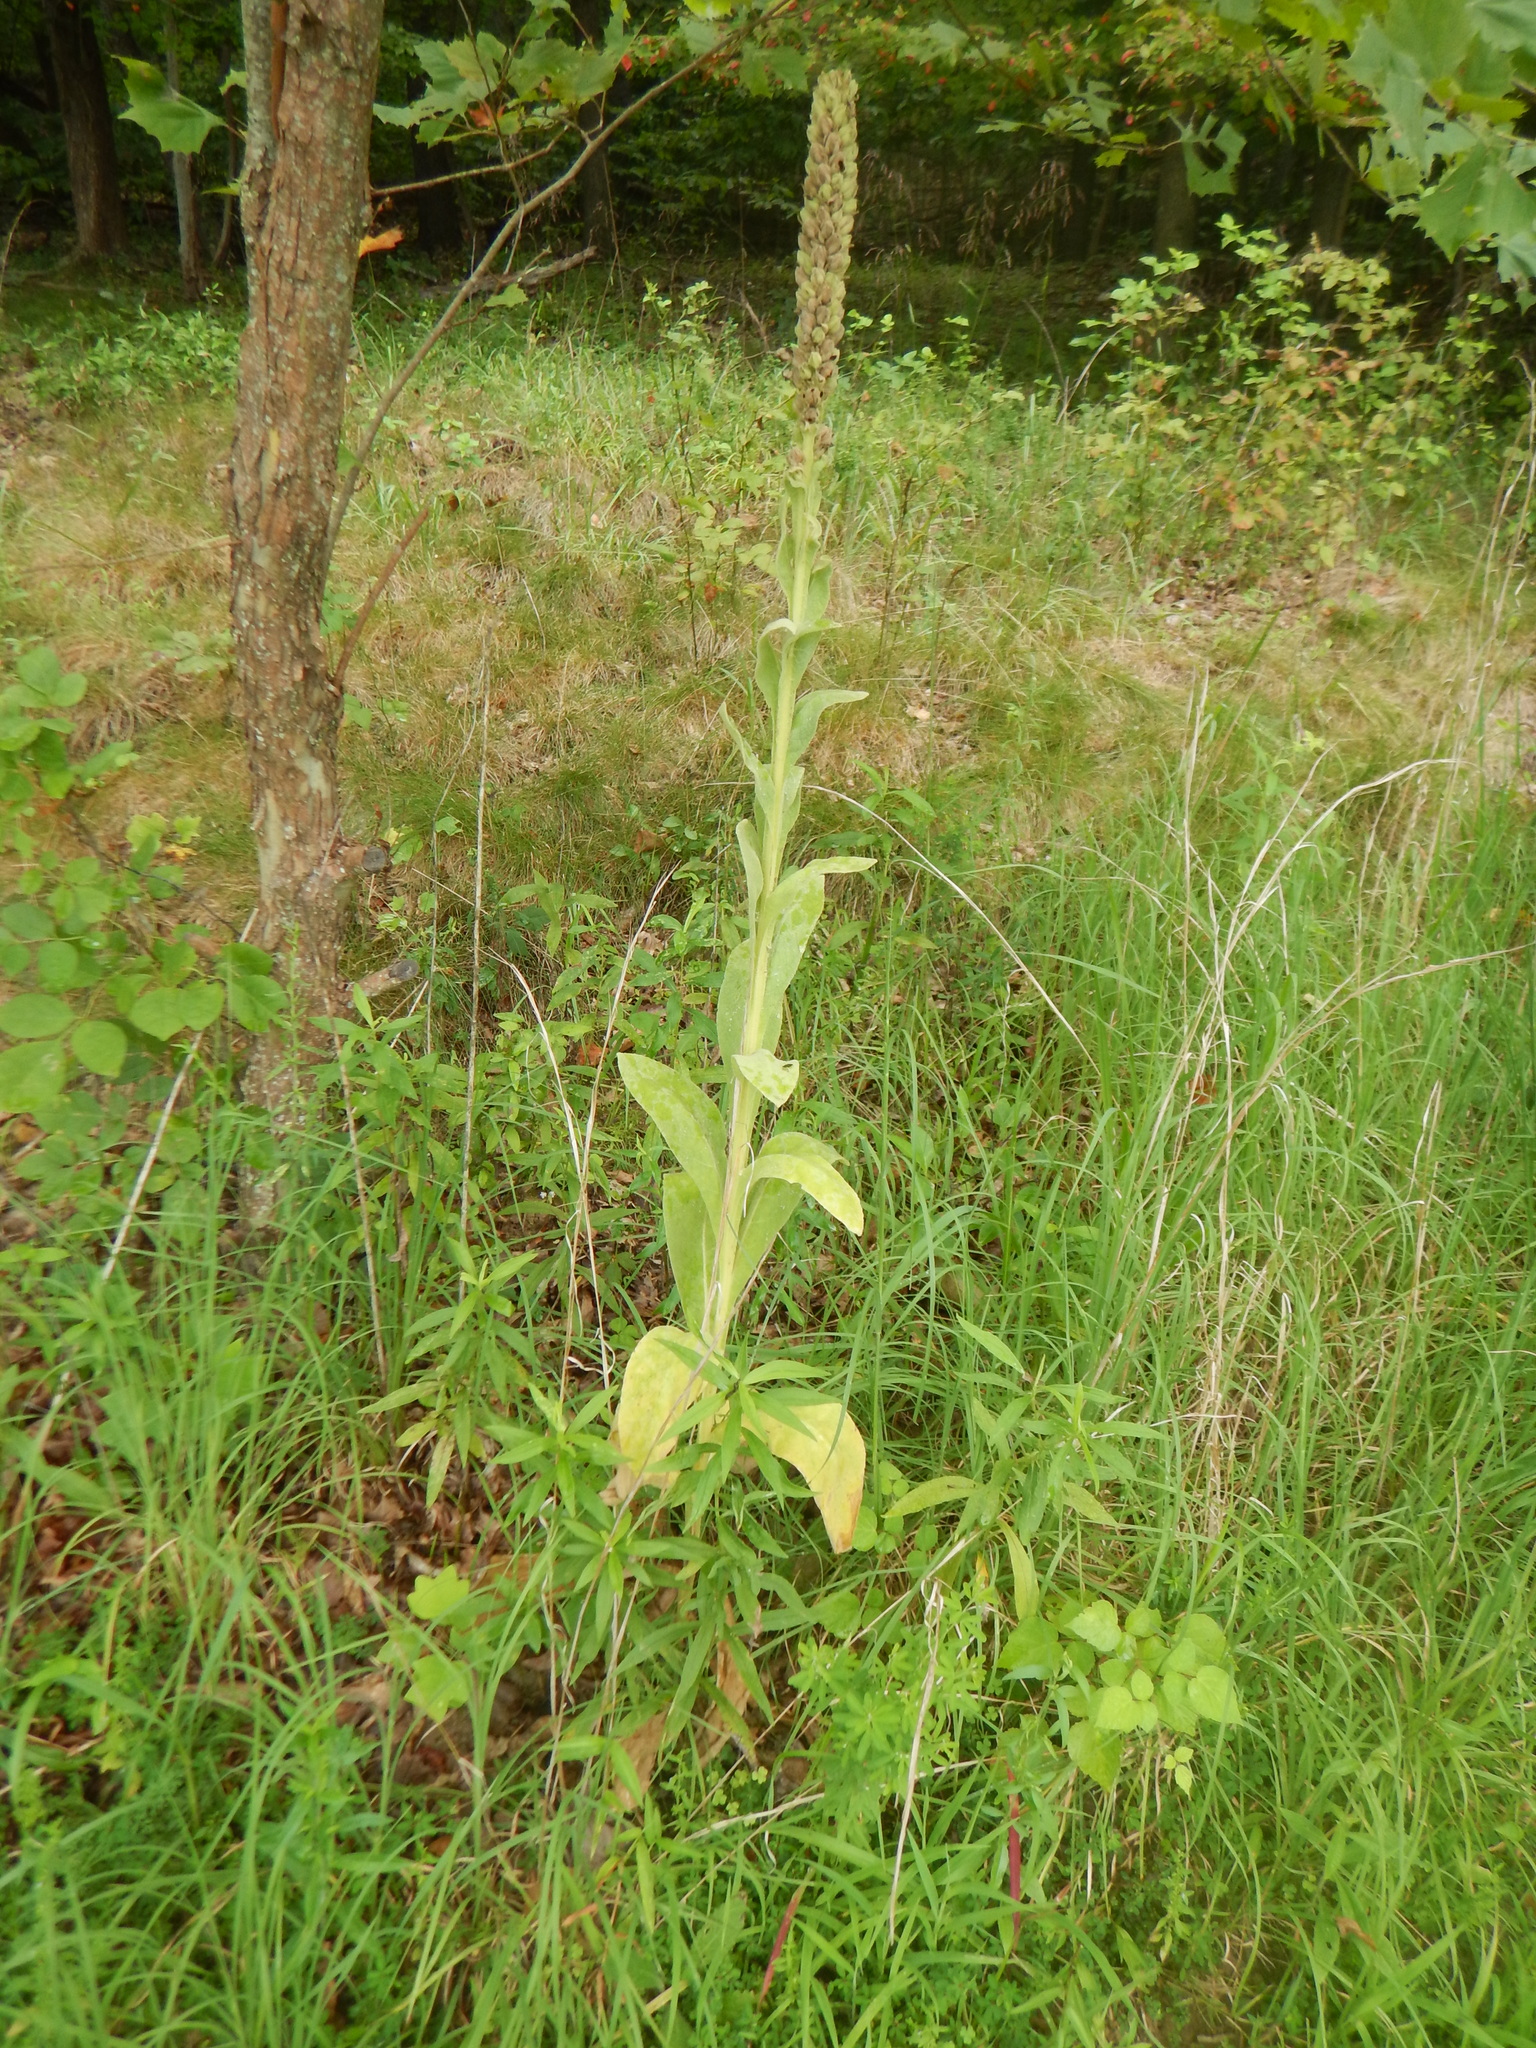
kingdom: Plantae
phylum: Tracheophyta
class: Magnoliopsida
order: Lamiales
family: Scrophulariaceae
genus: Verbascum
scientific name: Verbascum thapsus
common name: Common mullein
